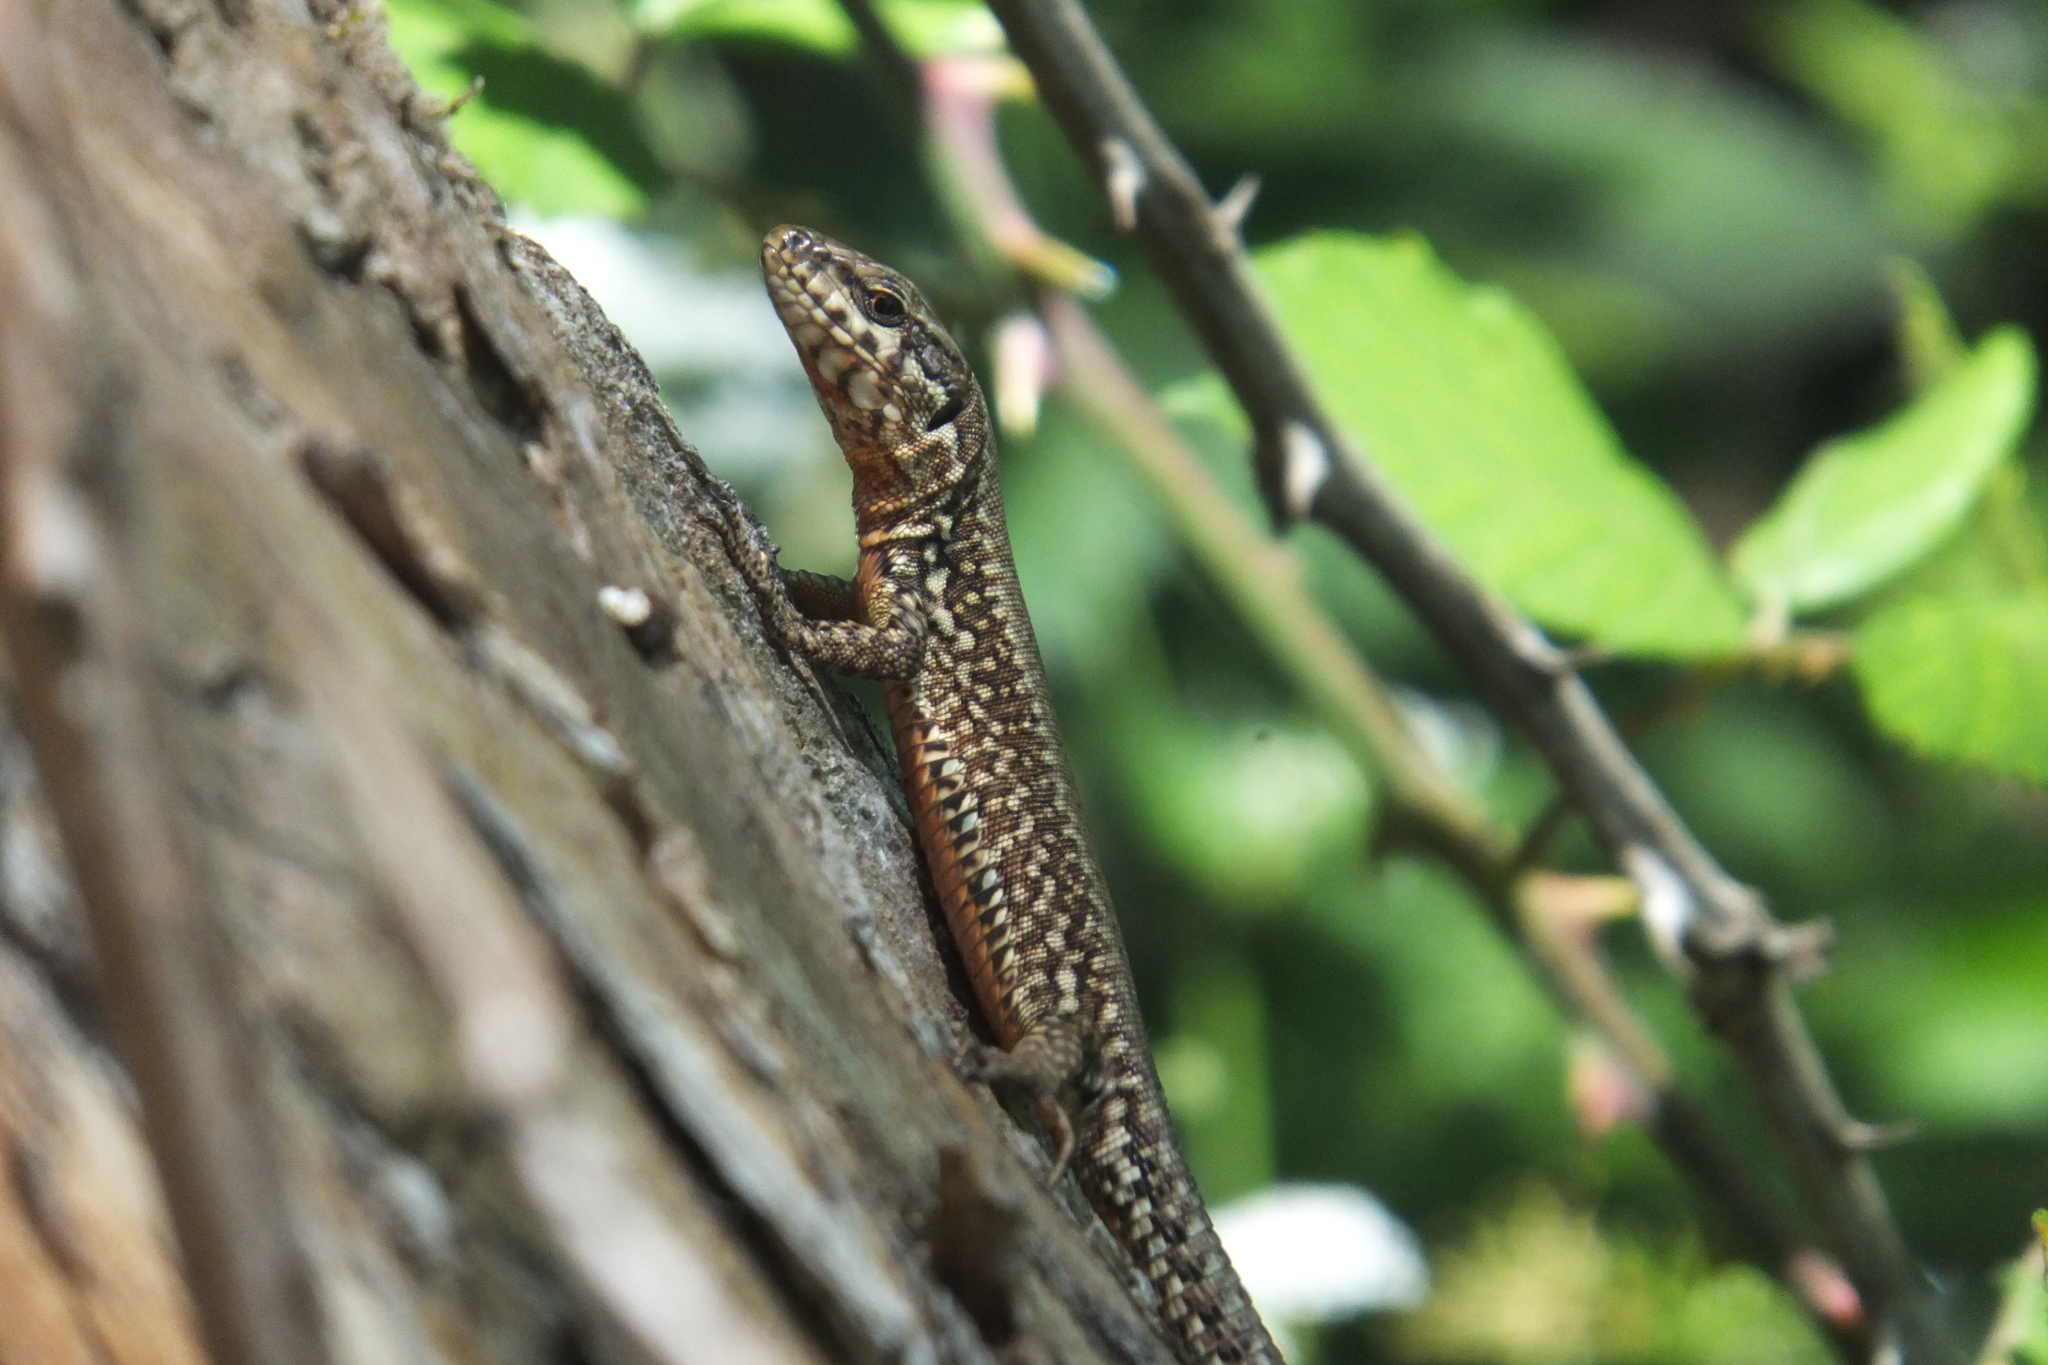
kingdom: Animalia
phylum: Chordata
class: Squamata
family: Lacertidae
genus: Podarcis
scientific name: Podarcis muralis
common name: Common wall lizard
